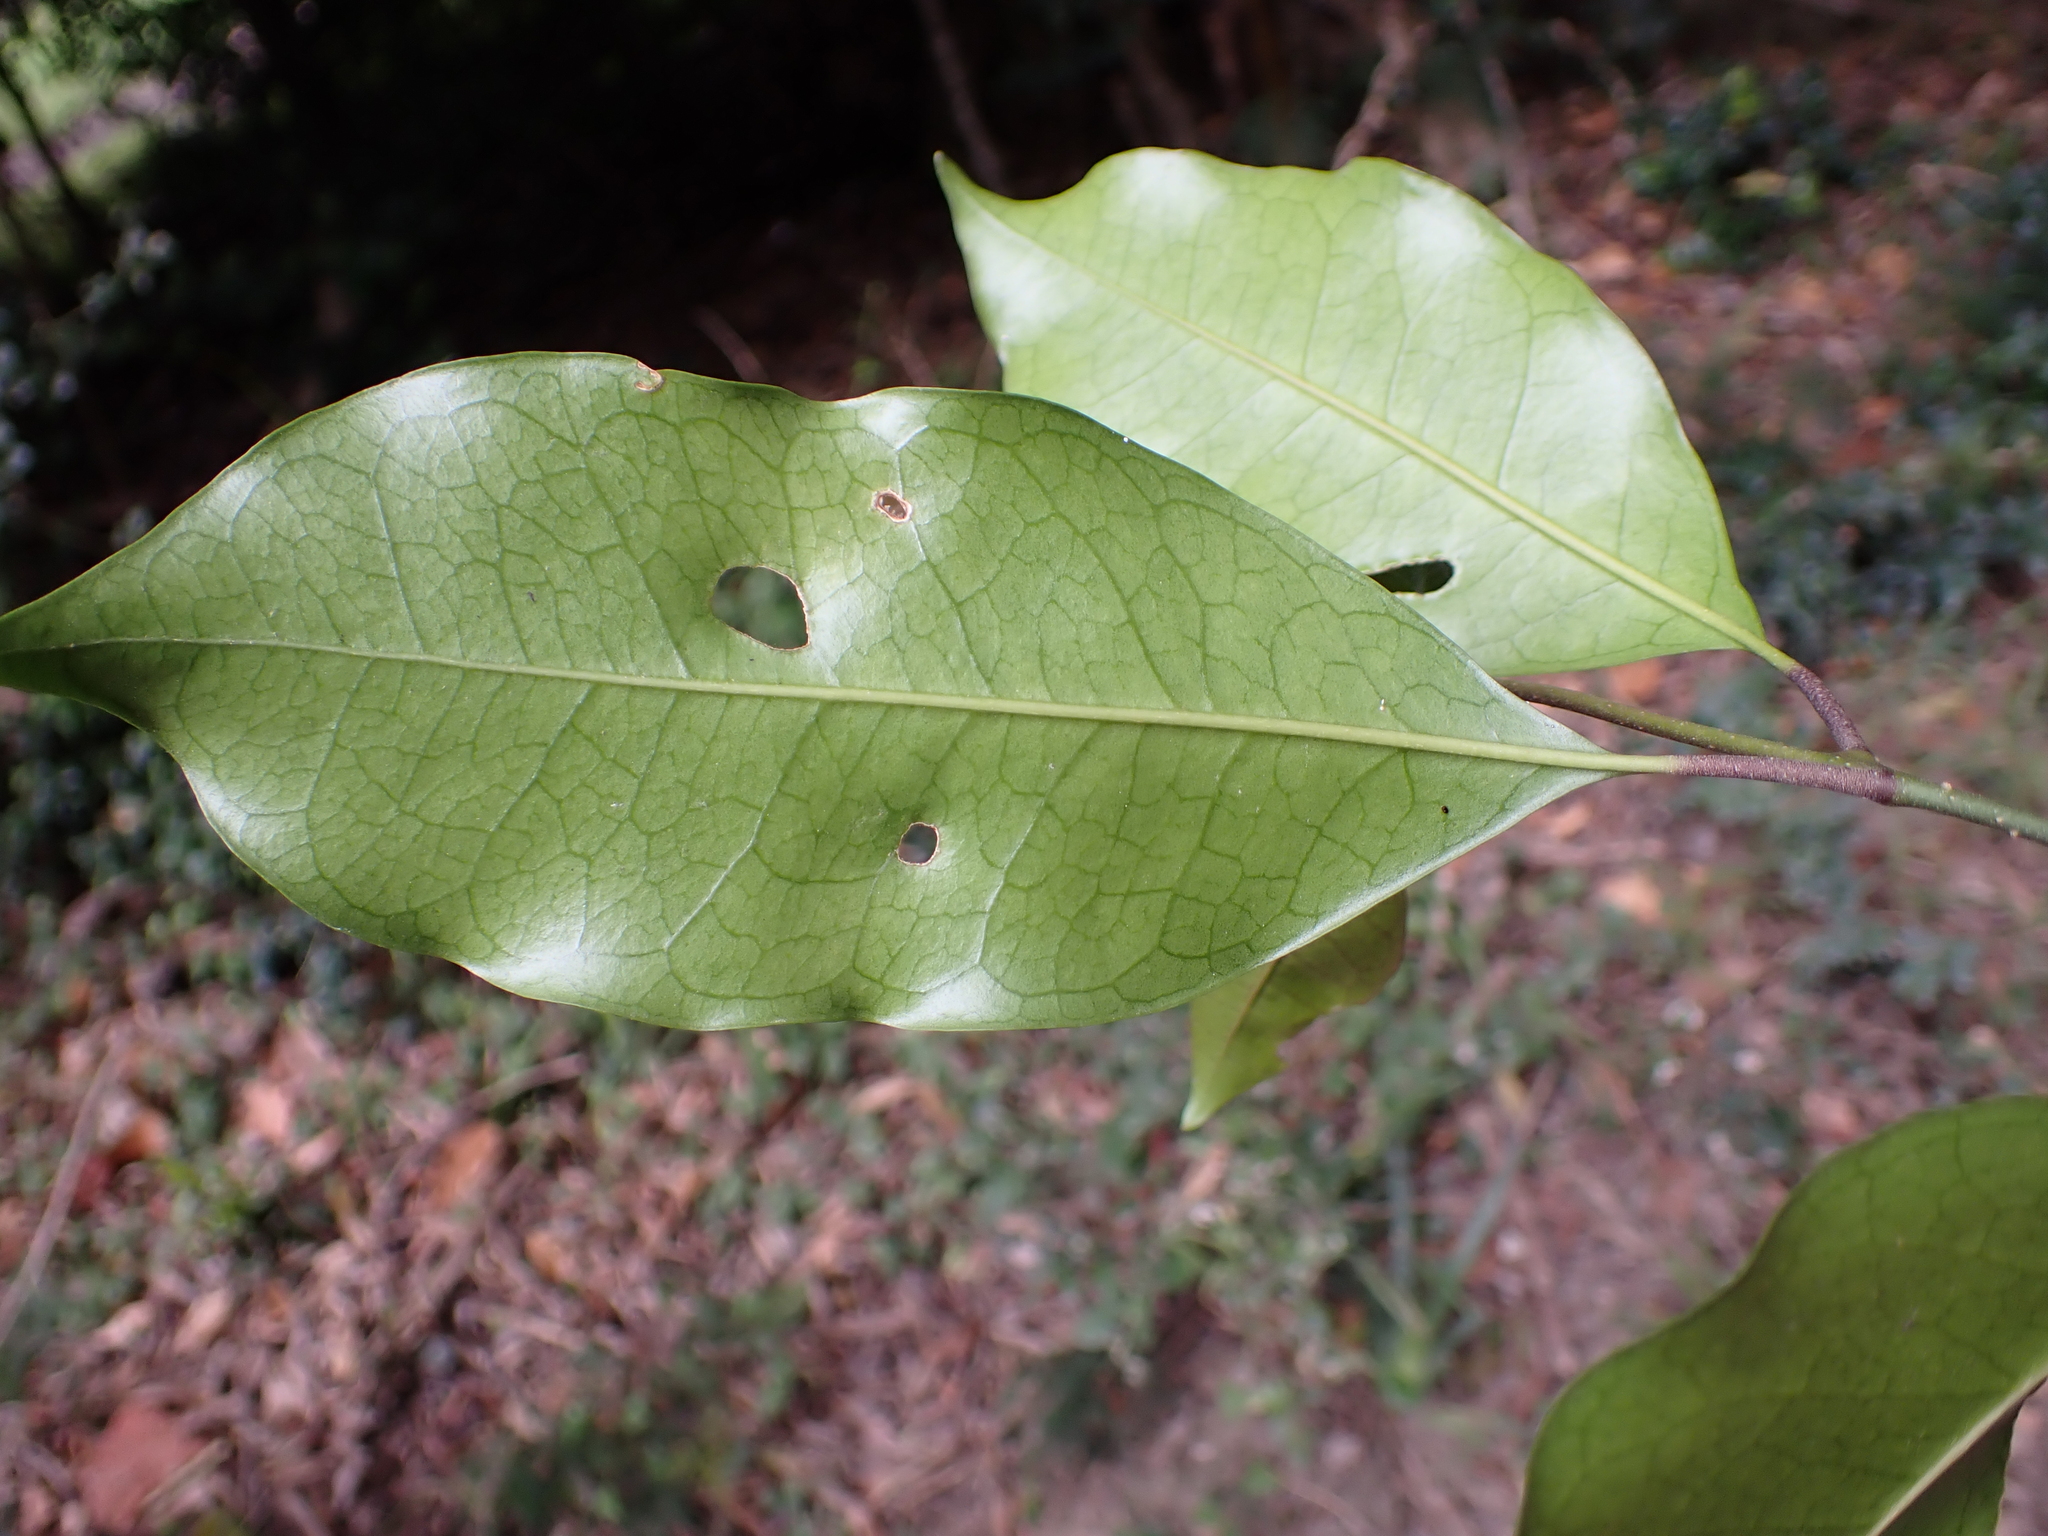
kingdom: Plantae
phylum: Tracheophyta
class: Magnoliopsida
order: Aquifoliales
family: Aquifoliaceae
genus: Ilex
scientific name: Ilex mitis
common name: African holly
